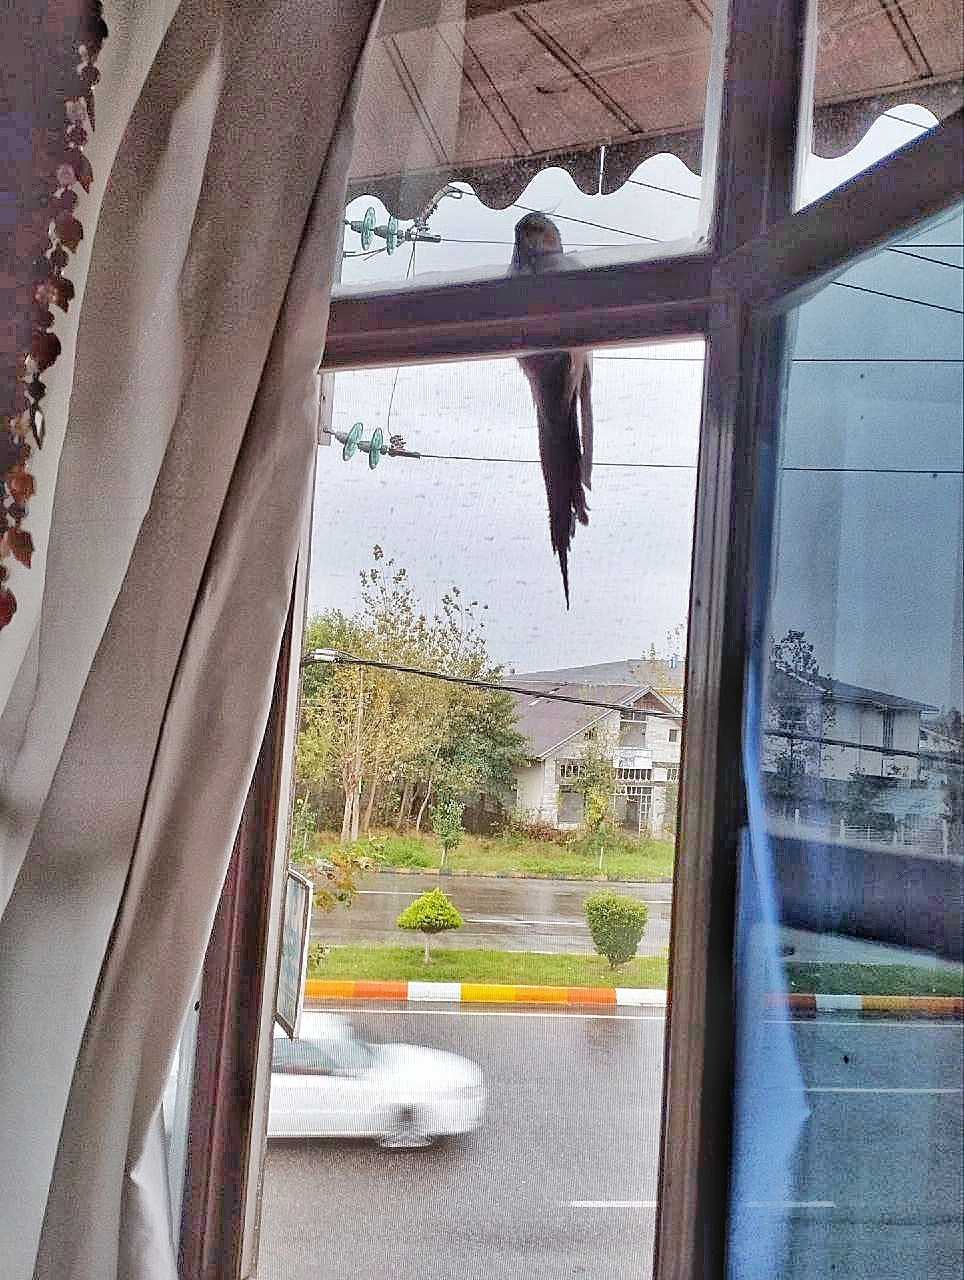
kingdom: Animalia
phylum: Chordata
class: Aves
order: Psittaciformes
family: Psittacidae
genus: Nymphicus
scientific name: Nymphicus hollandicus
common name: Cockatiel
